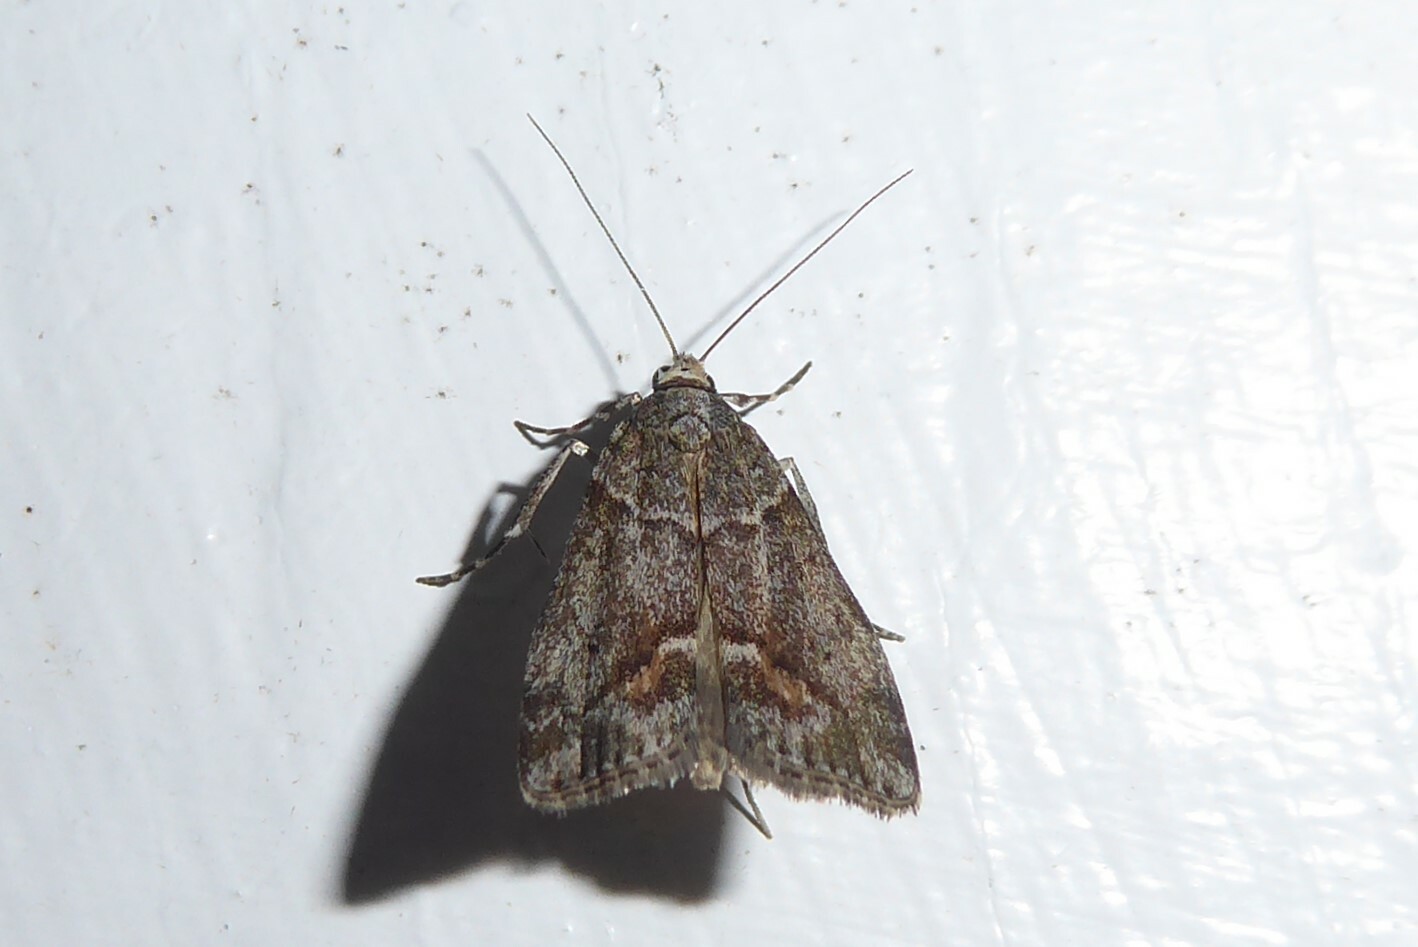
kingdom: Animalia
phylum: Arthropoda
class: Insecta
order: Lepidoptera
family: Crambidae
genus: Eudonia
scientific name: Eudonia submarginalis
